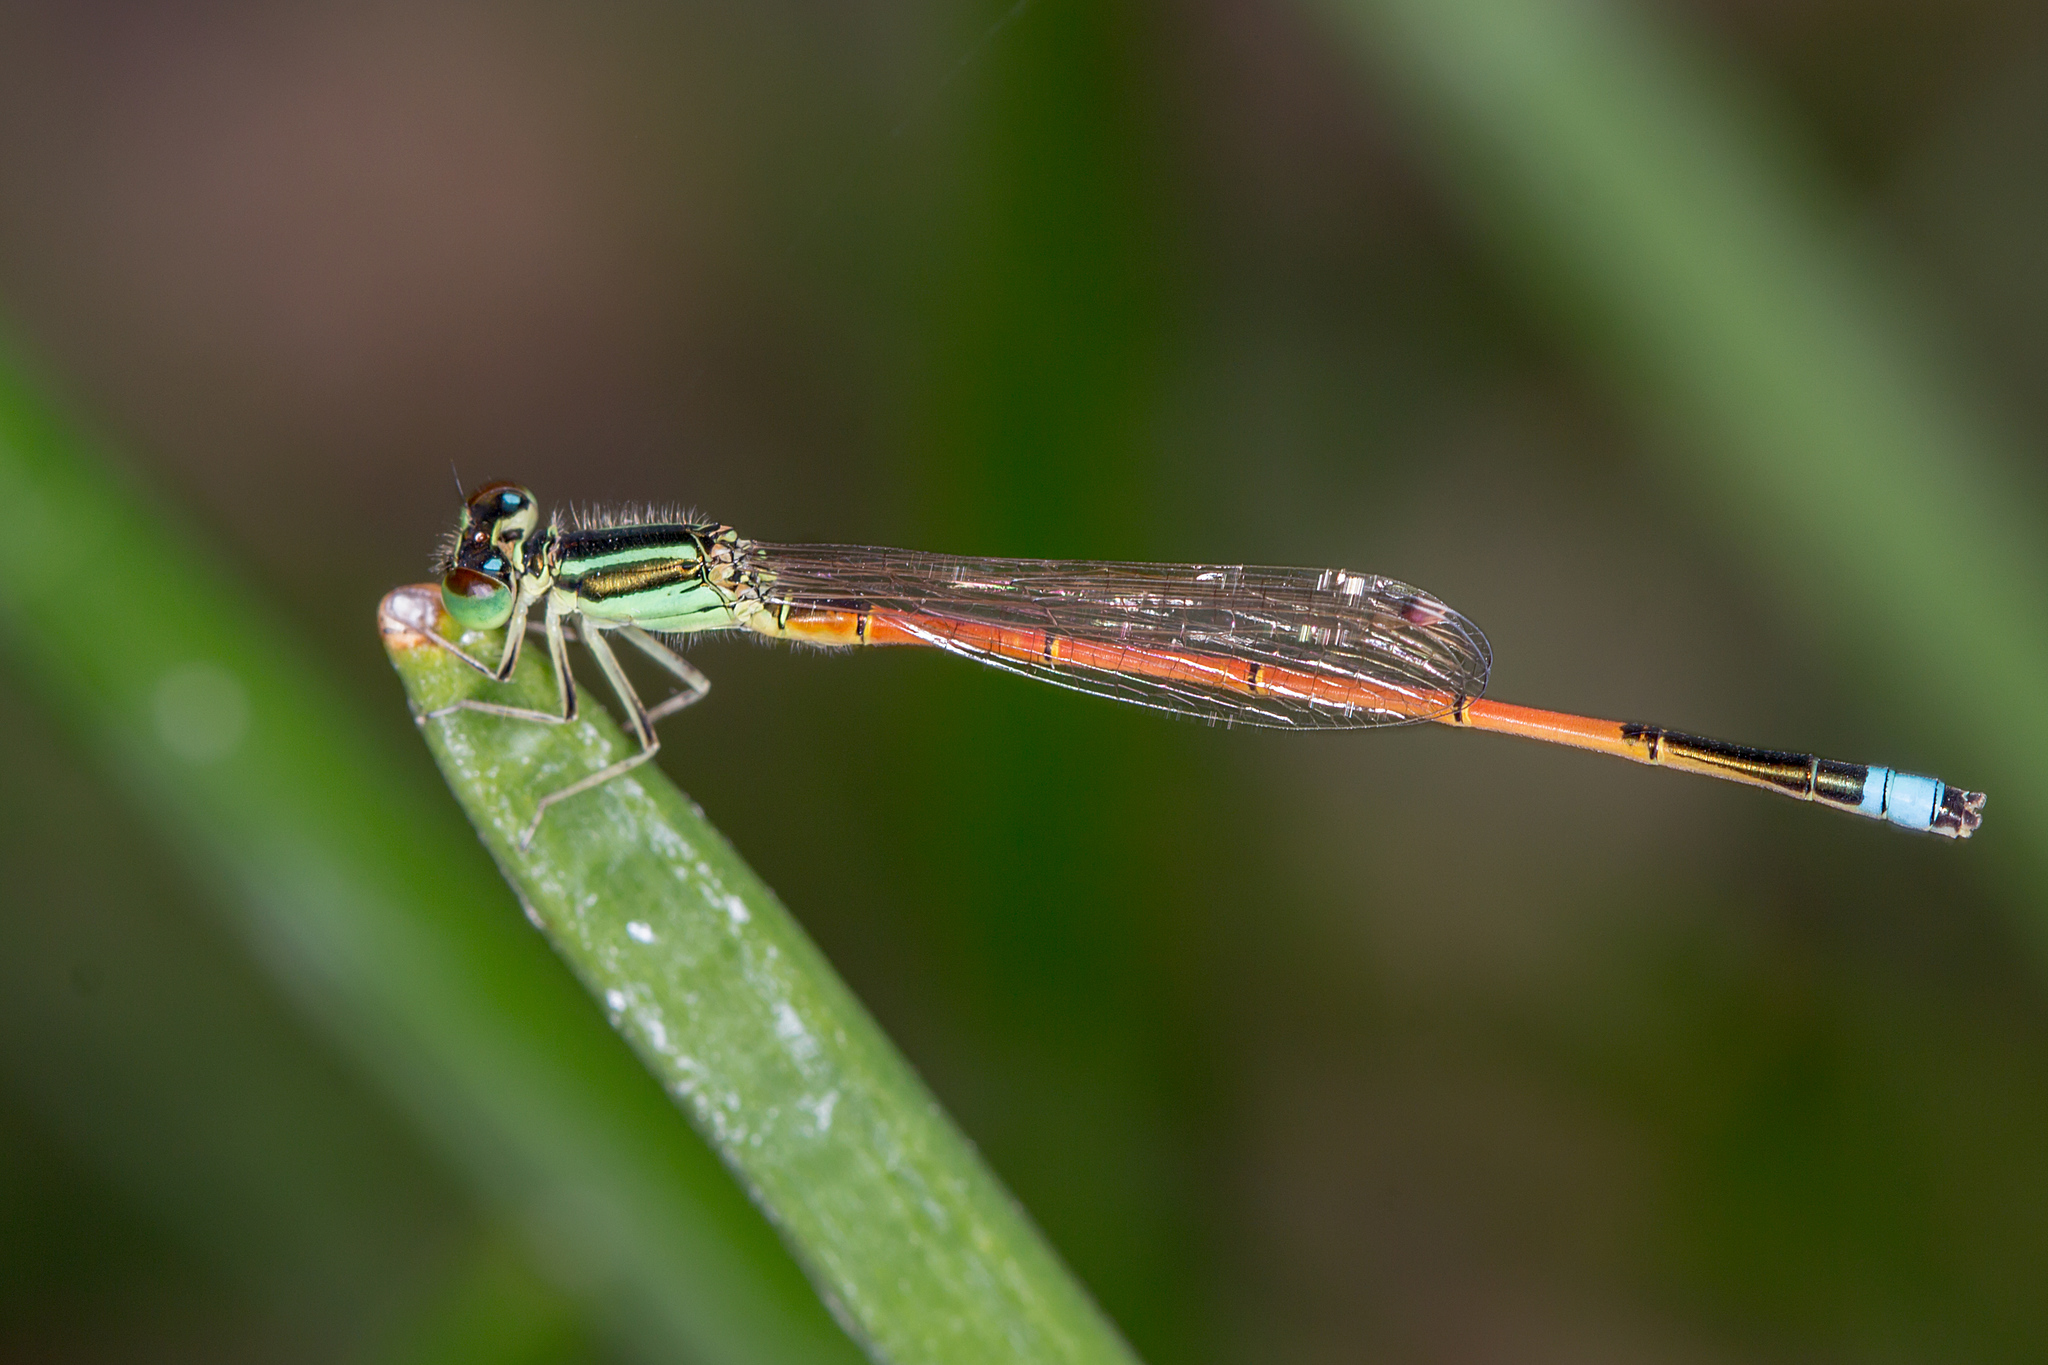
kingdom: Animalia
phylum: Arthropoda
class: Insecta
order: Odonata
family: Coenagrionidae
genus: Ischnura
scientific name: Ischnura aurora
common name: Gossamer damselfly
